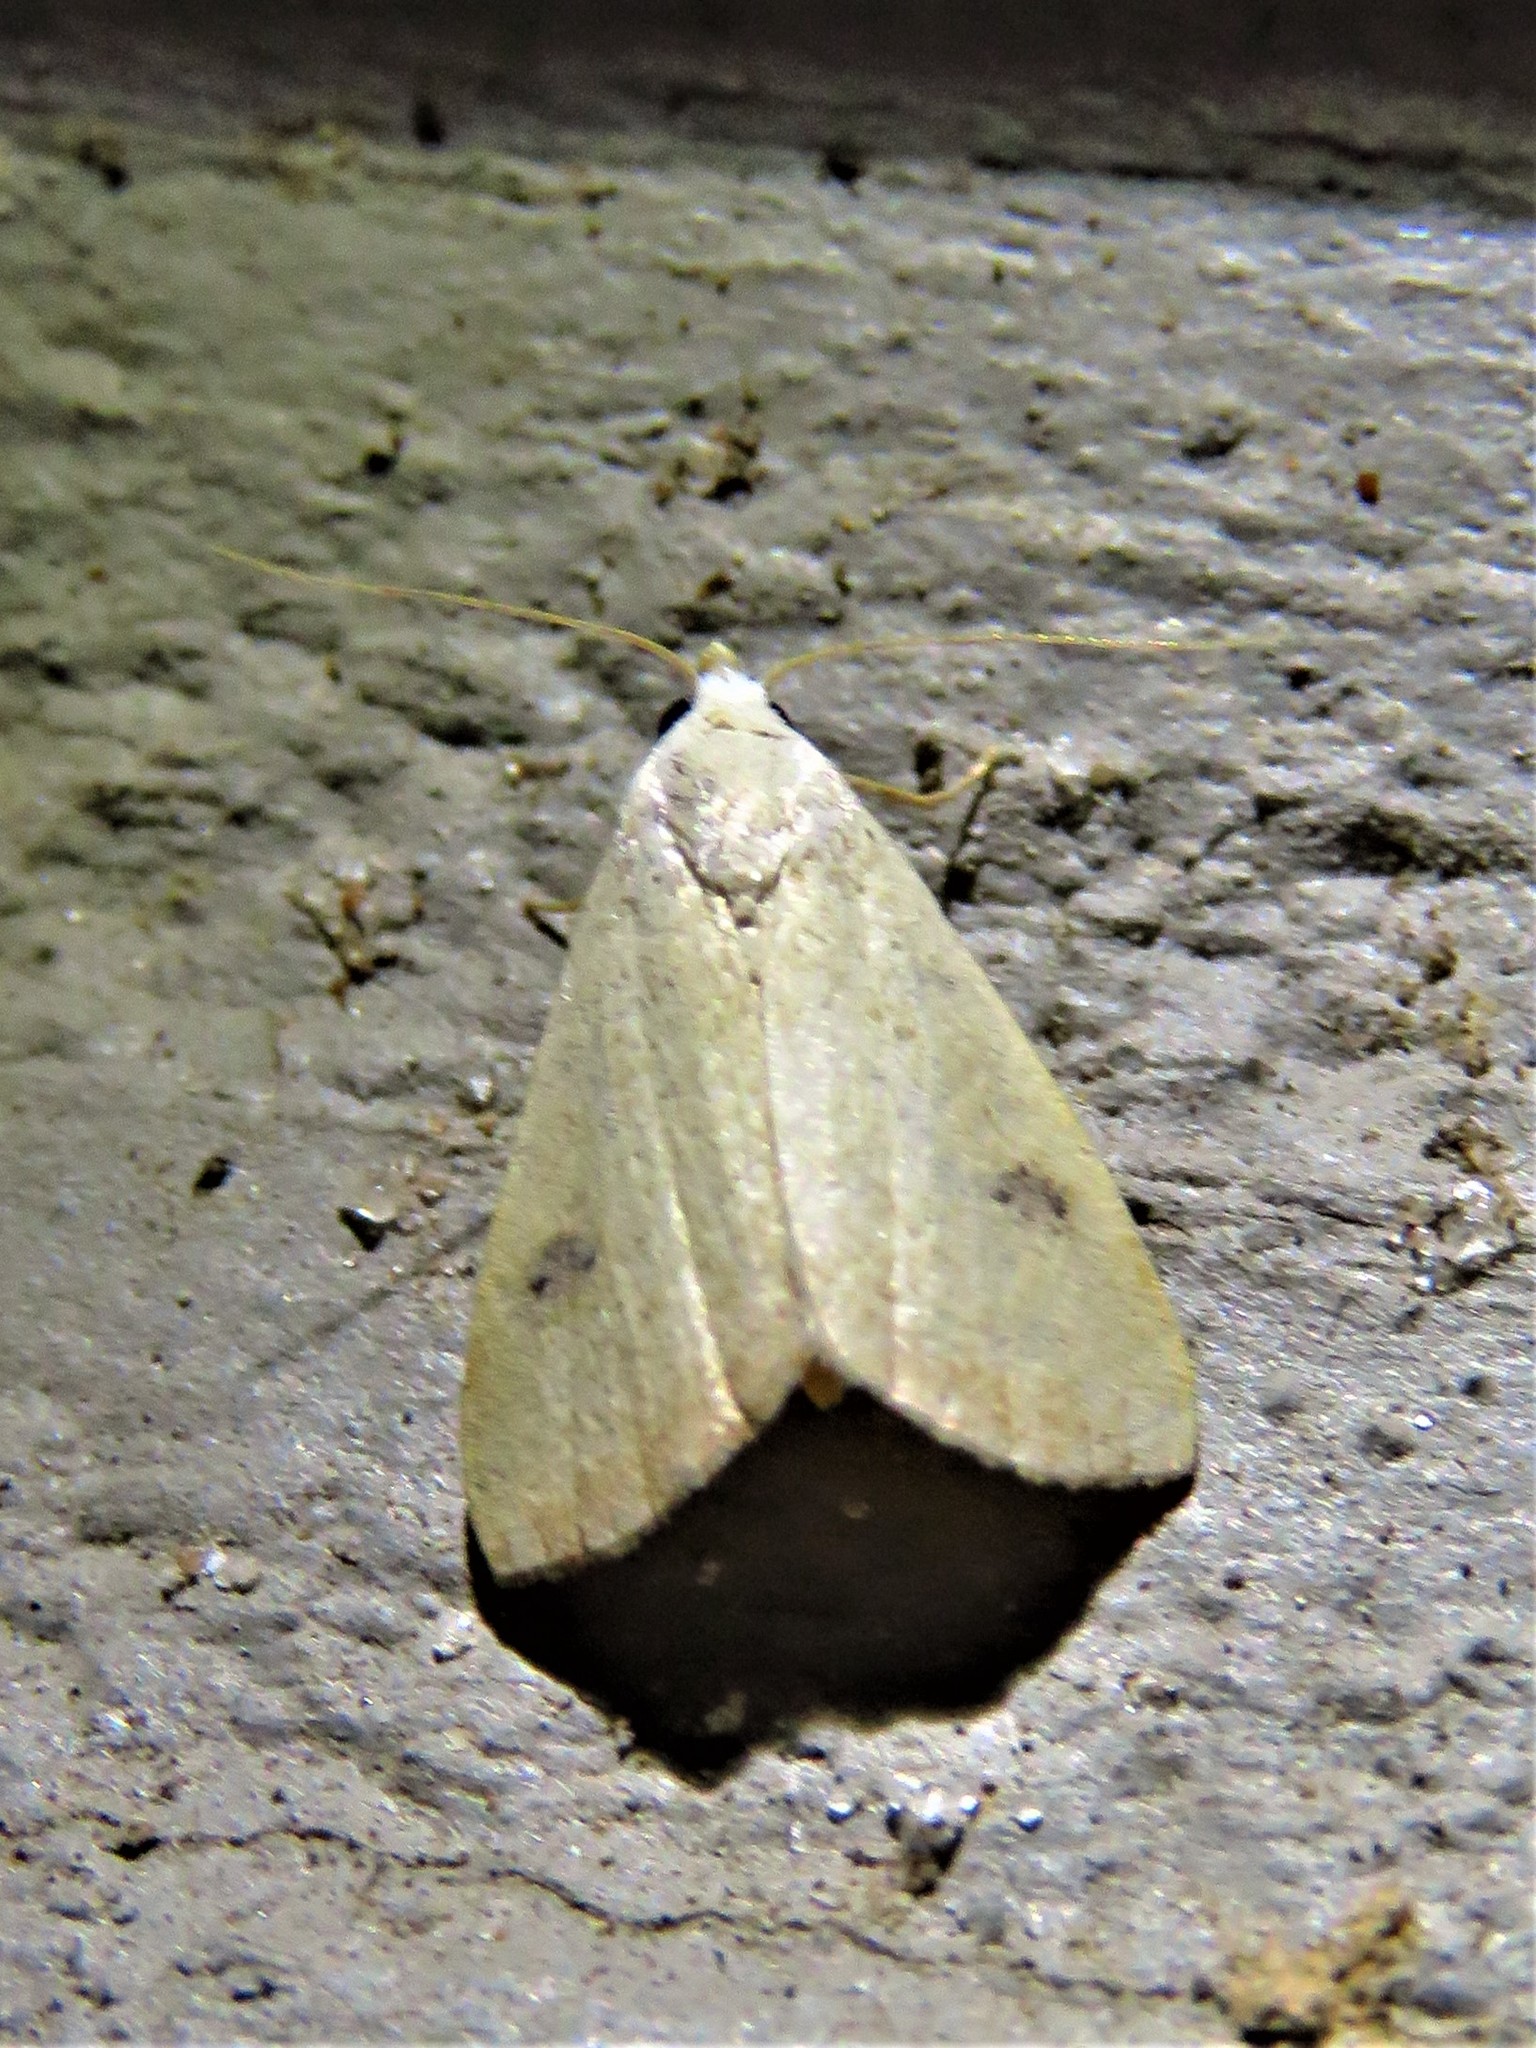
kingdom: Animalia
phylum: Arthropoda
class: Insecta
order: Lepidoptera
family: Erebidae
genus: Rivula
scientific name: Rivula propinqualis
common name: Spotted grass moth
